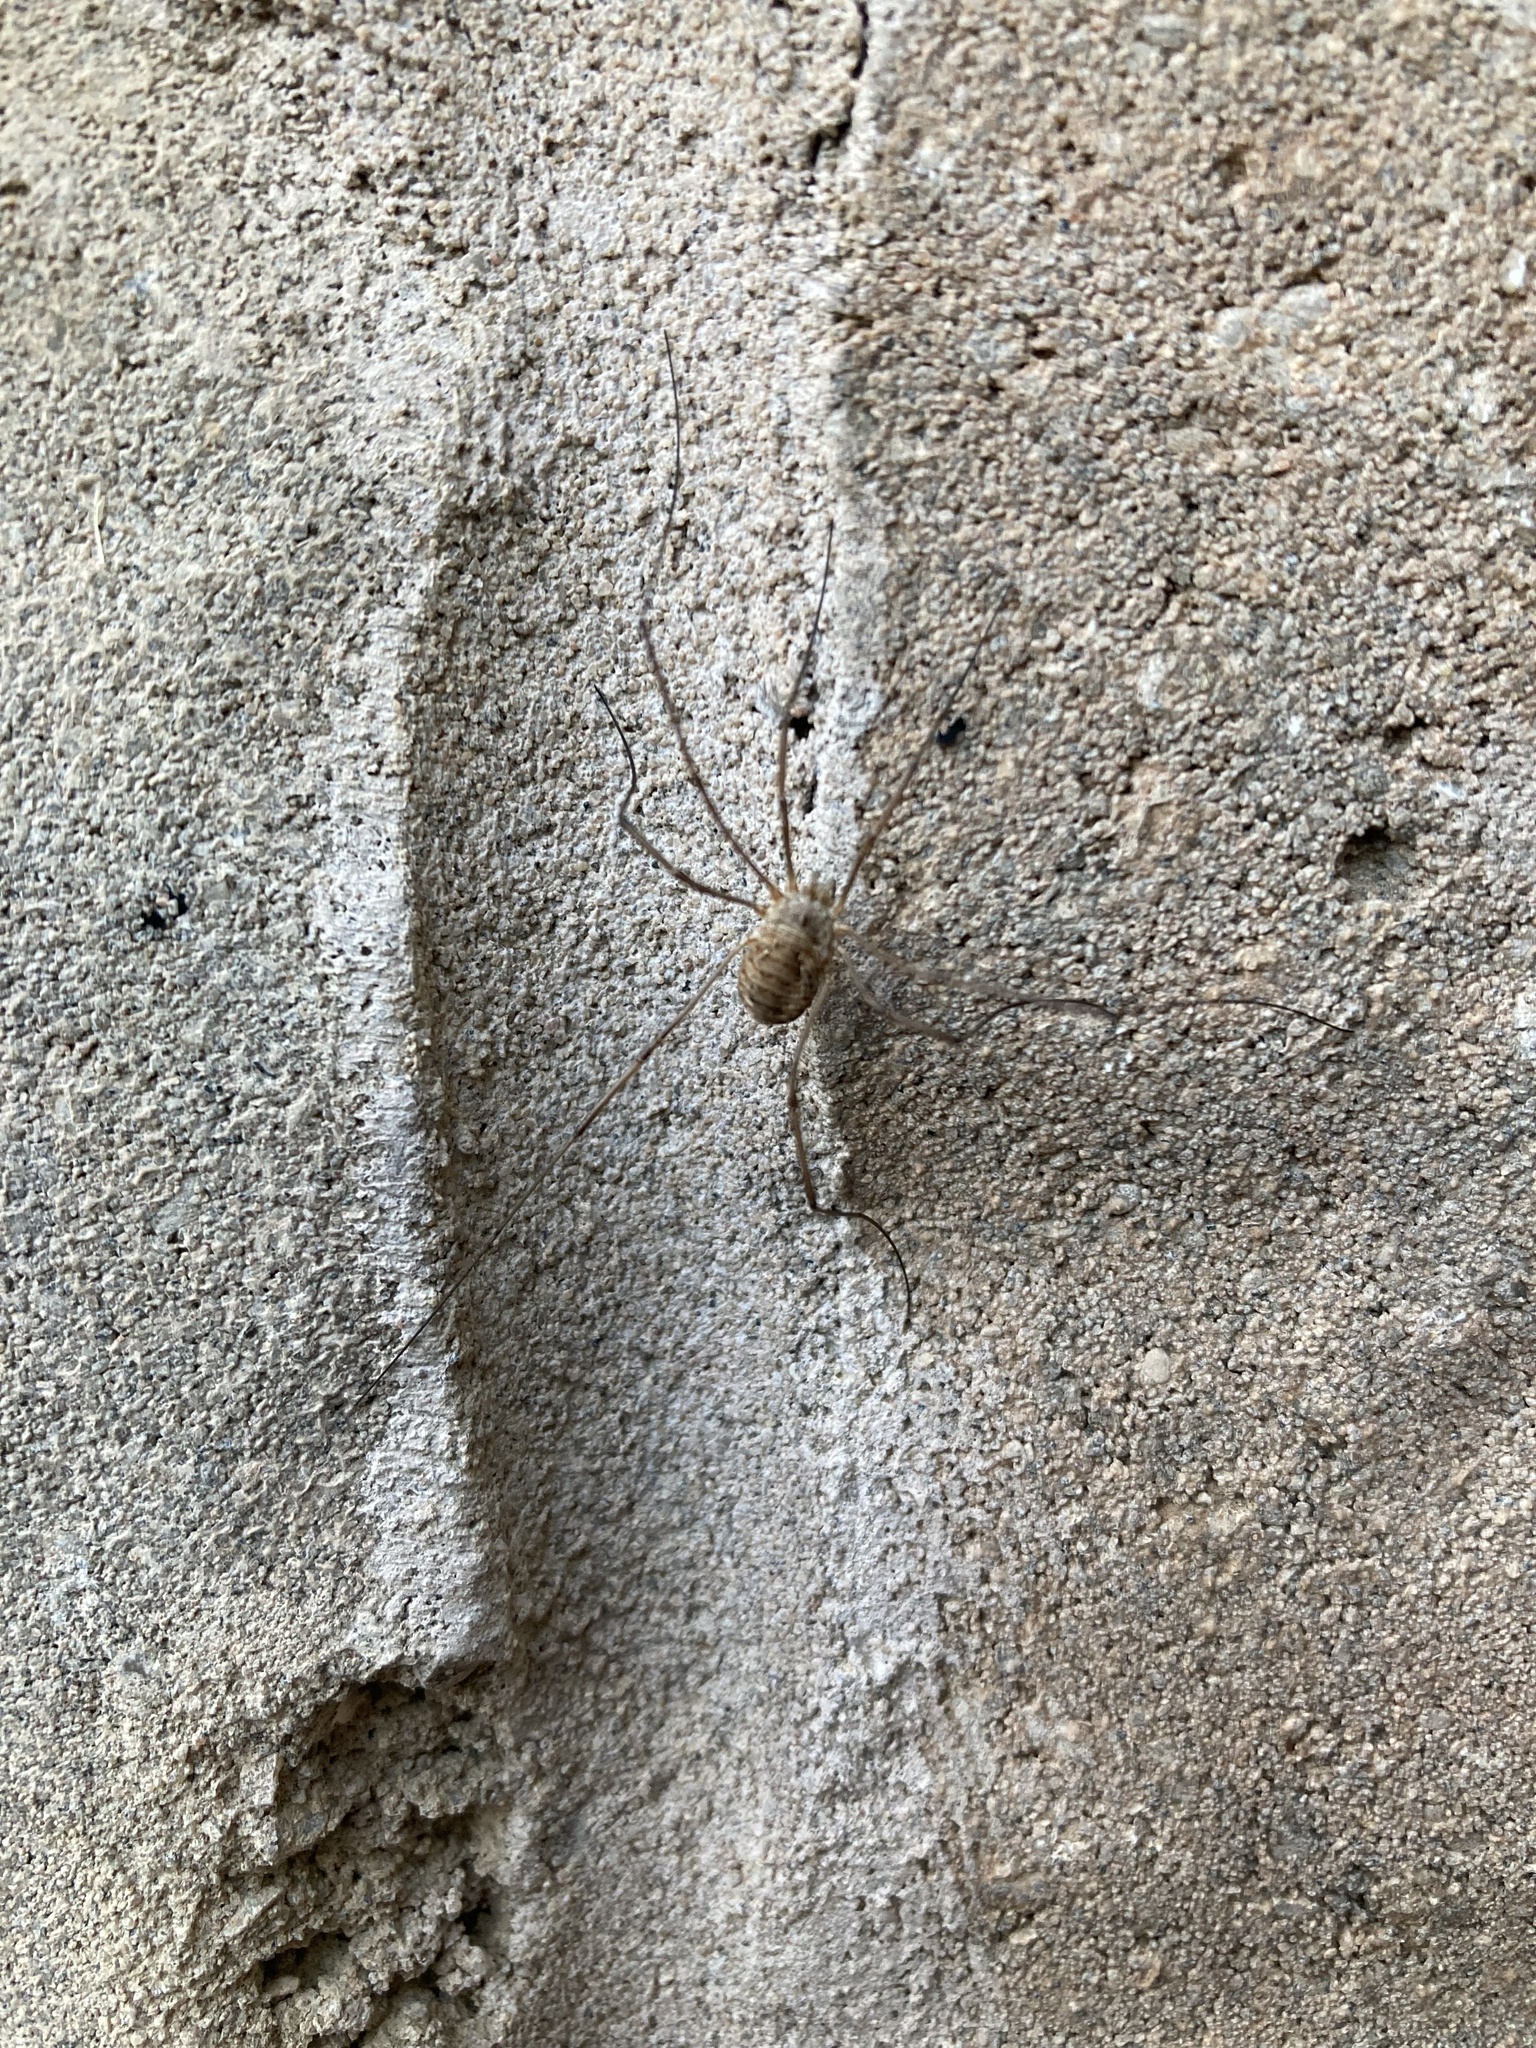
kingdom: Animalia
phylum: Arthropoda
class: Arachnida
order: Opiliones
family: Phalangiidae
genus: Phalangium
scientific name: Phalangium opilio
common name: Daddy longleg
